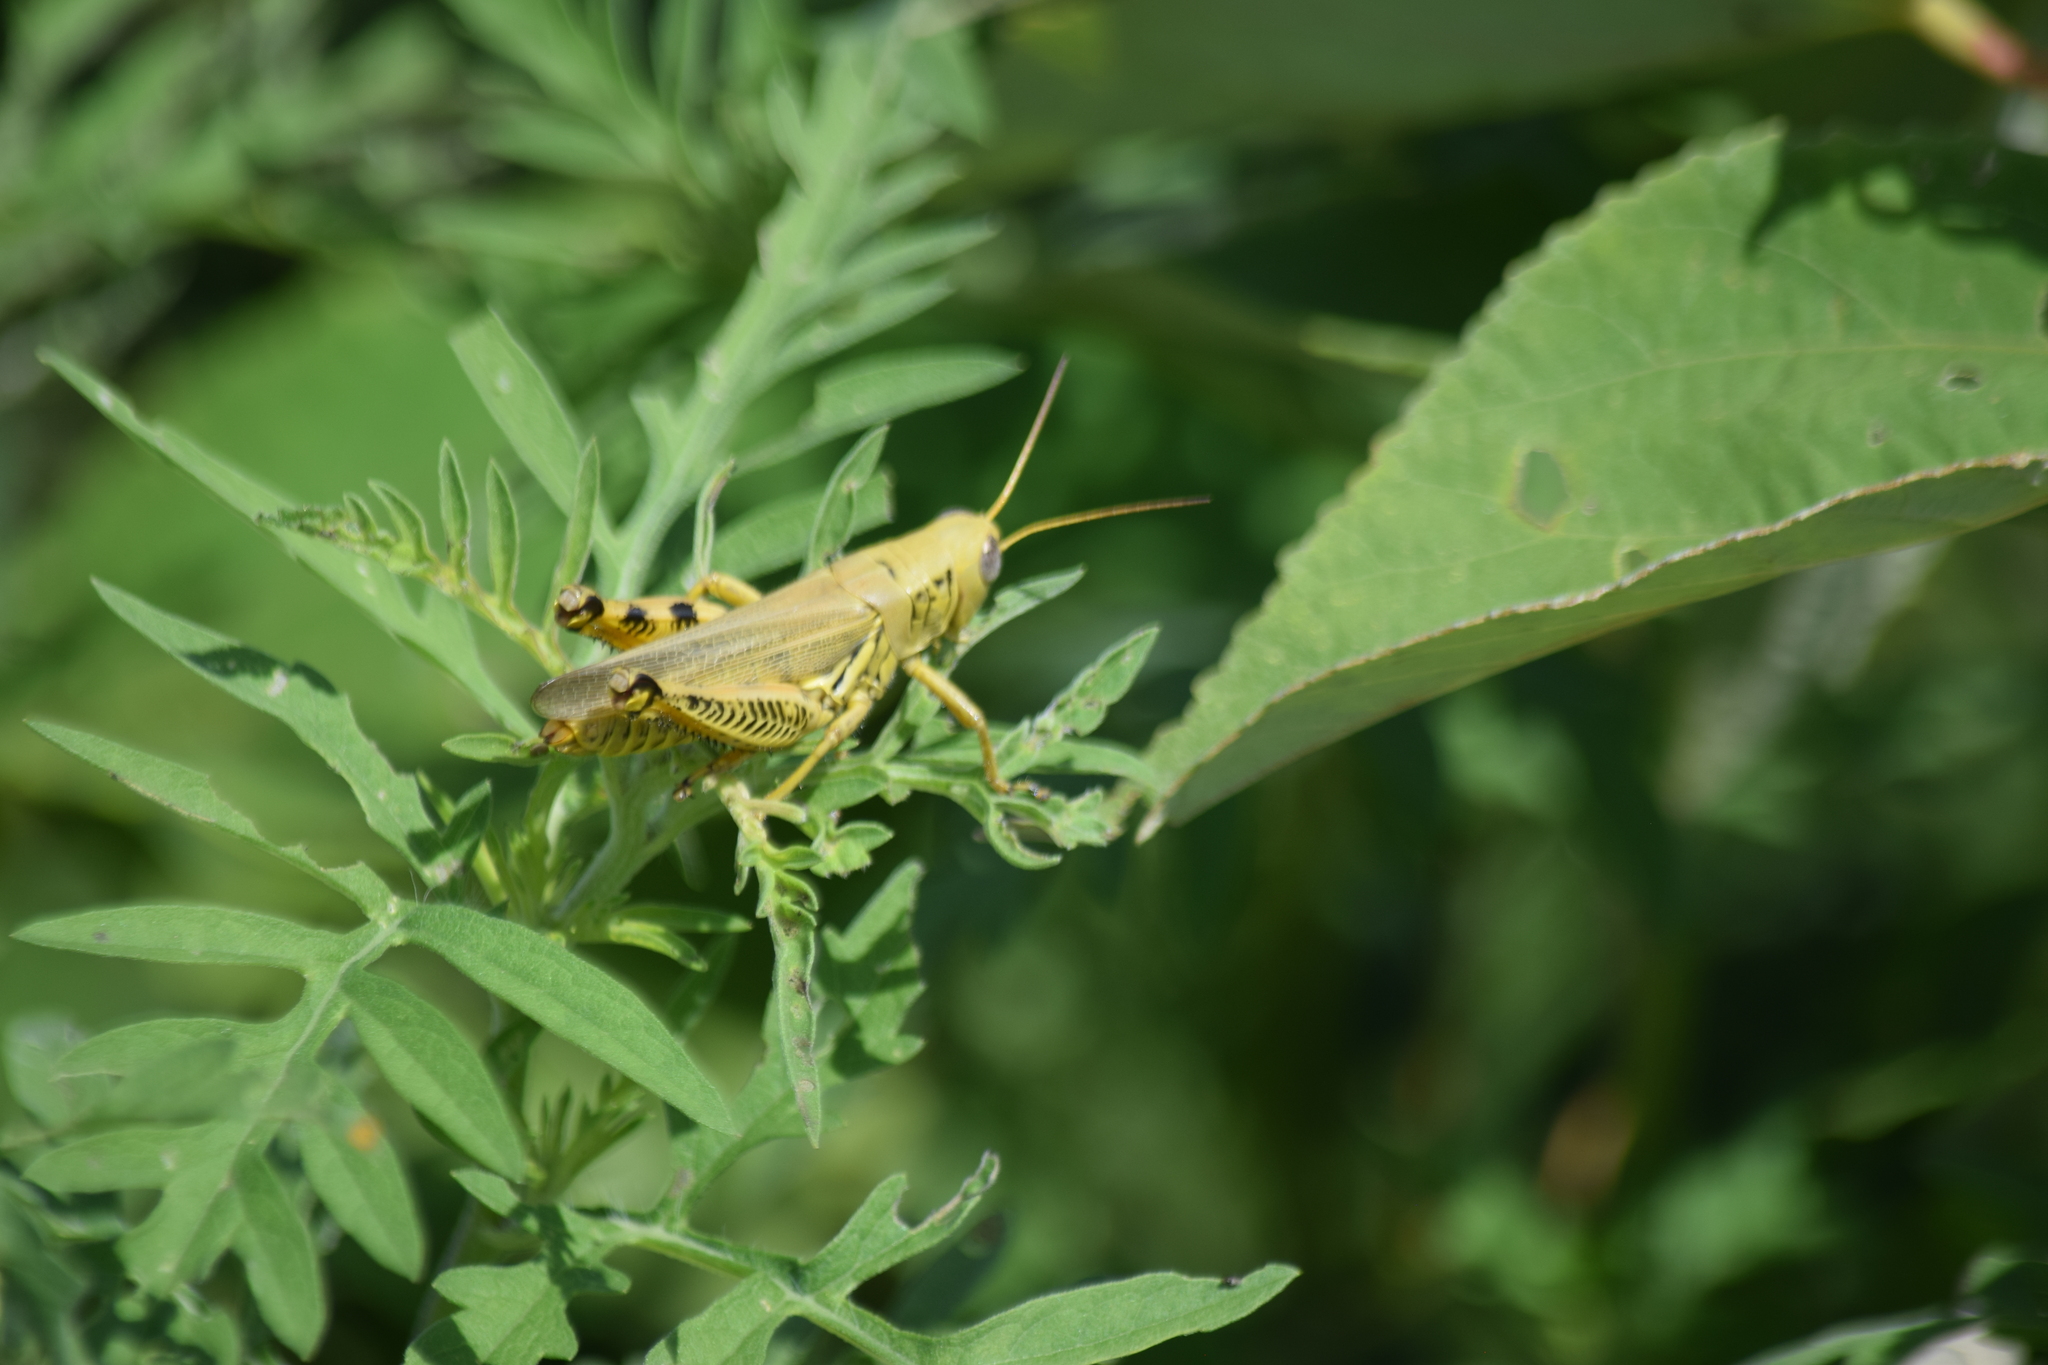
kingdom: Animalia
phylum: Arthropoda
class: Insecta
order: Orthoptera
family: Acrididae
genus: Melanoplus
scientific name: Melanoplus differentialis
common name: Differential grasshopper
